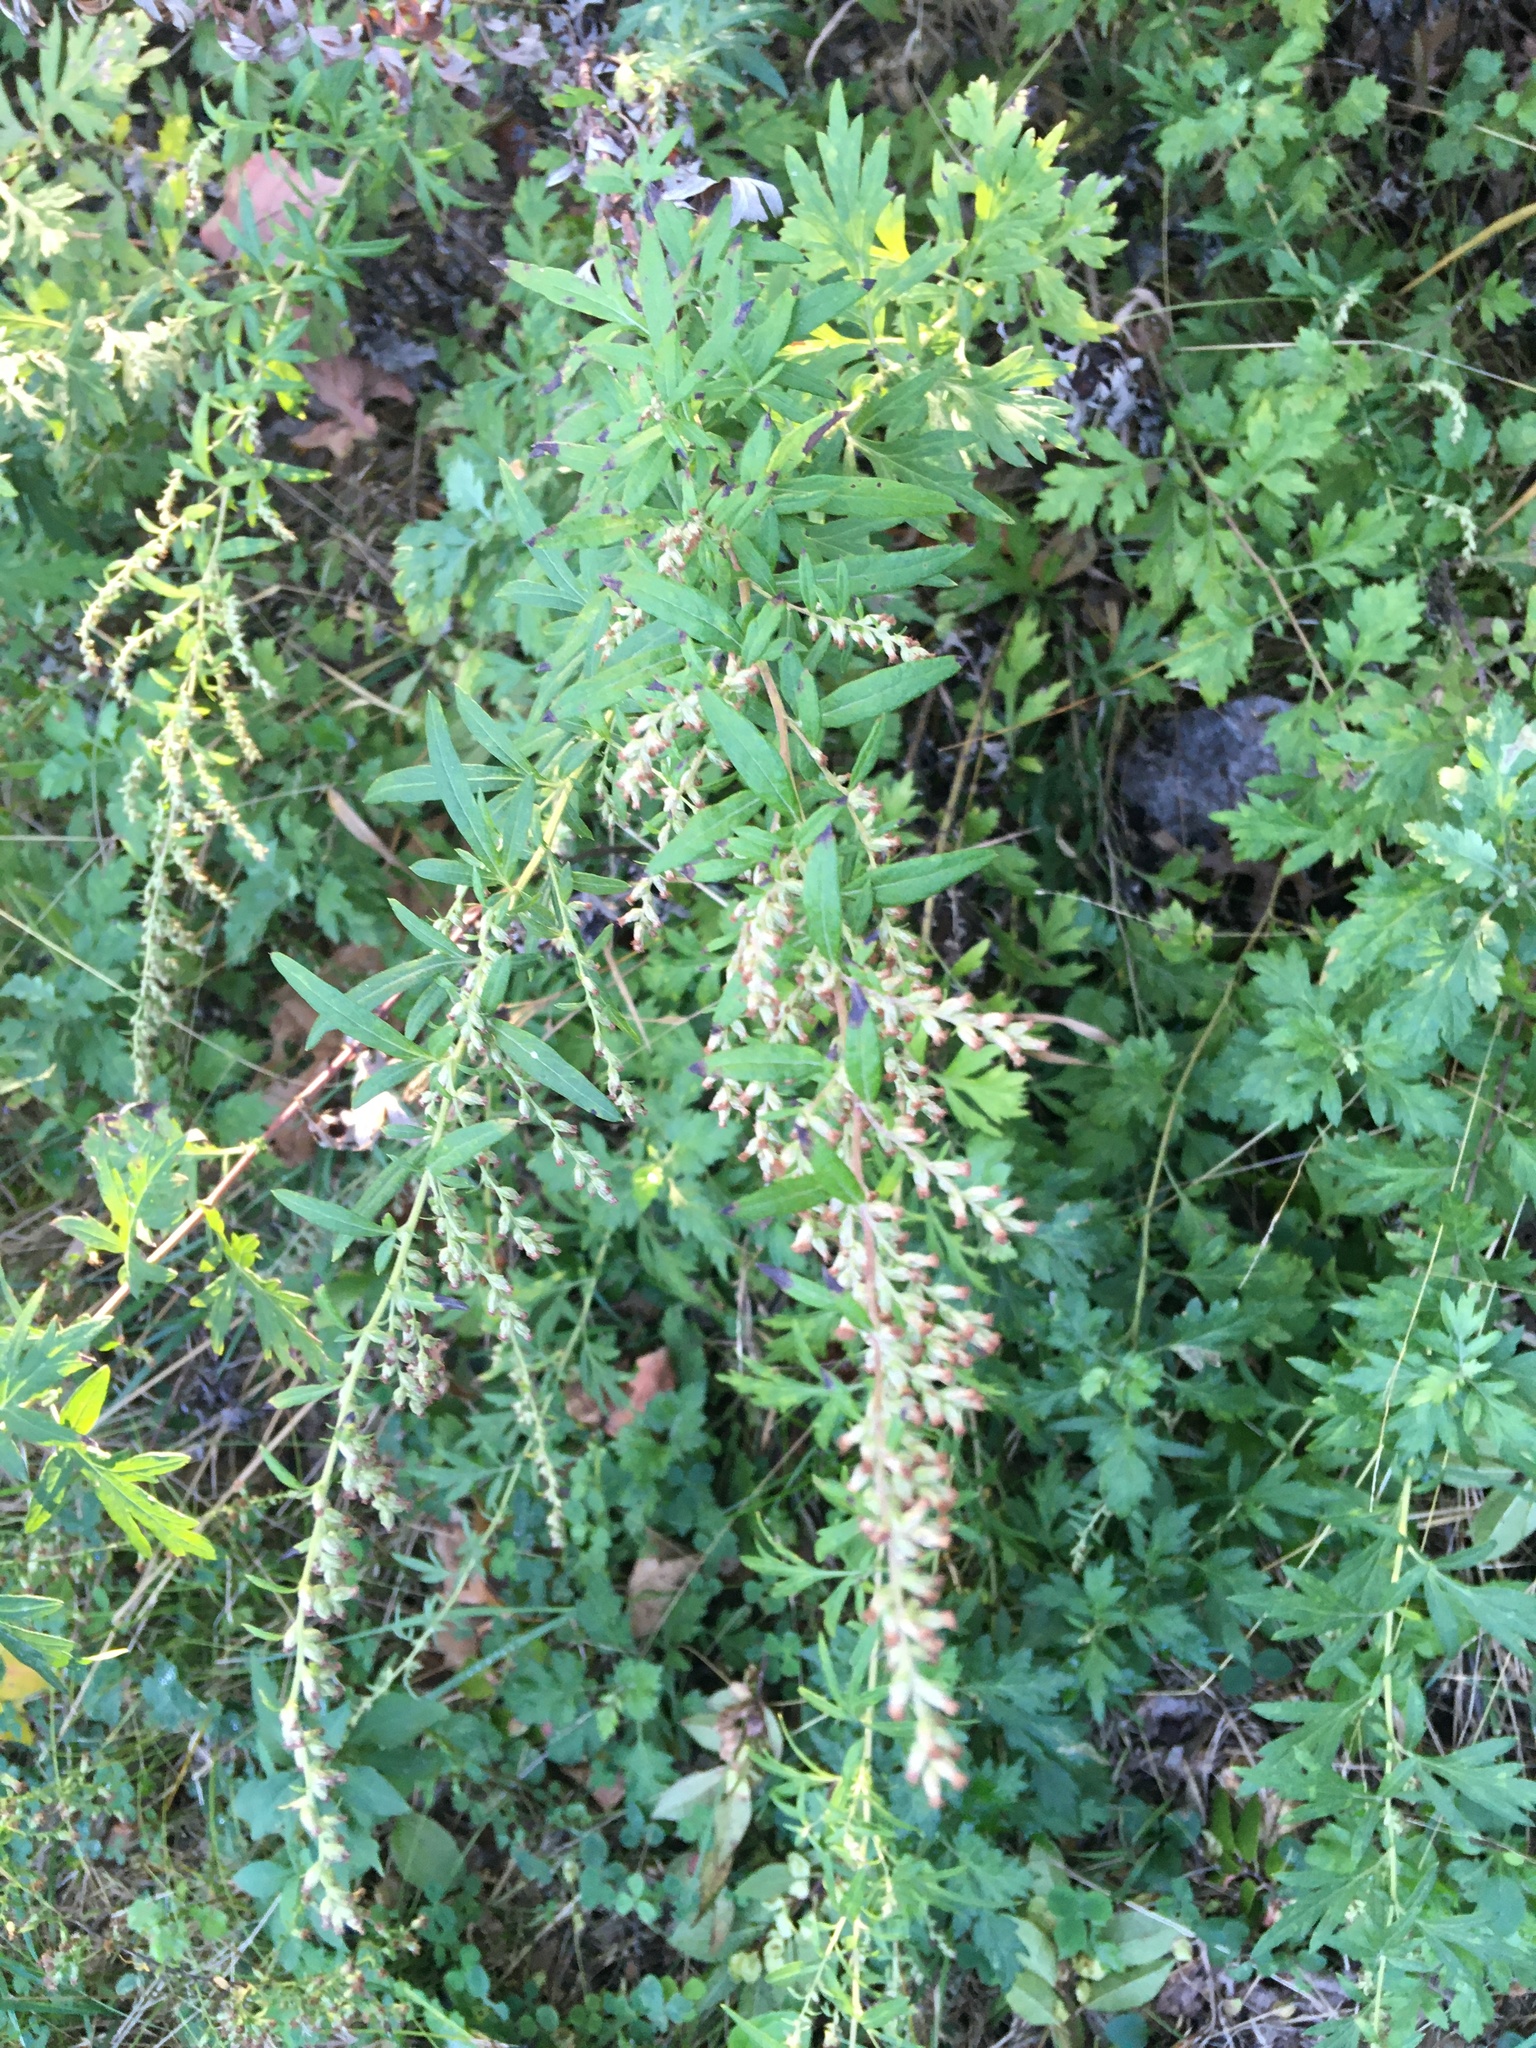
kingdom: Plantae
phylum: Tracheophyta
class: Magnoliopsida
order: Asterales
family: Asteraceae
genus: Artemisia
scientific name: Artemisia vulgaris
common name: Mugwort
